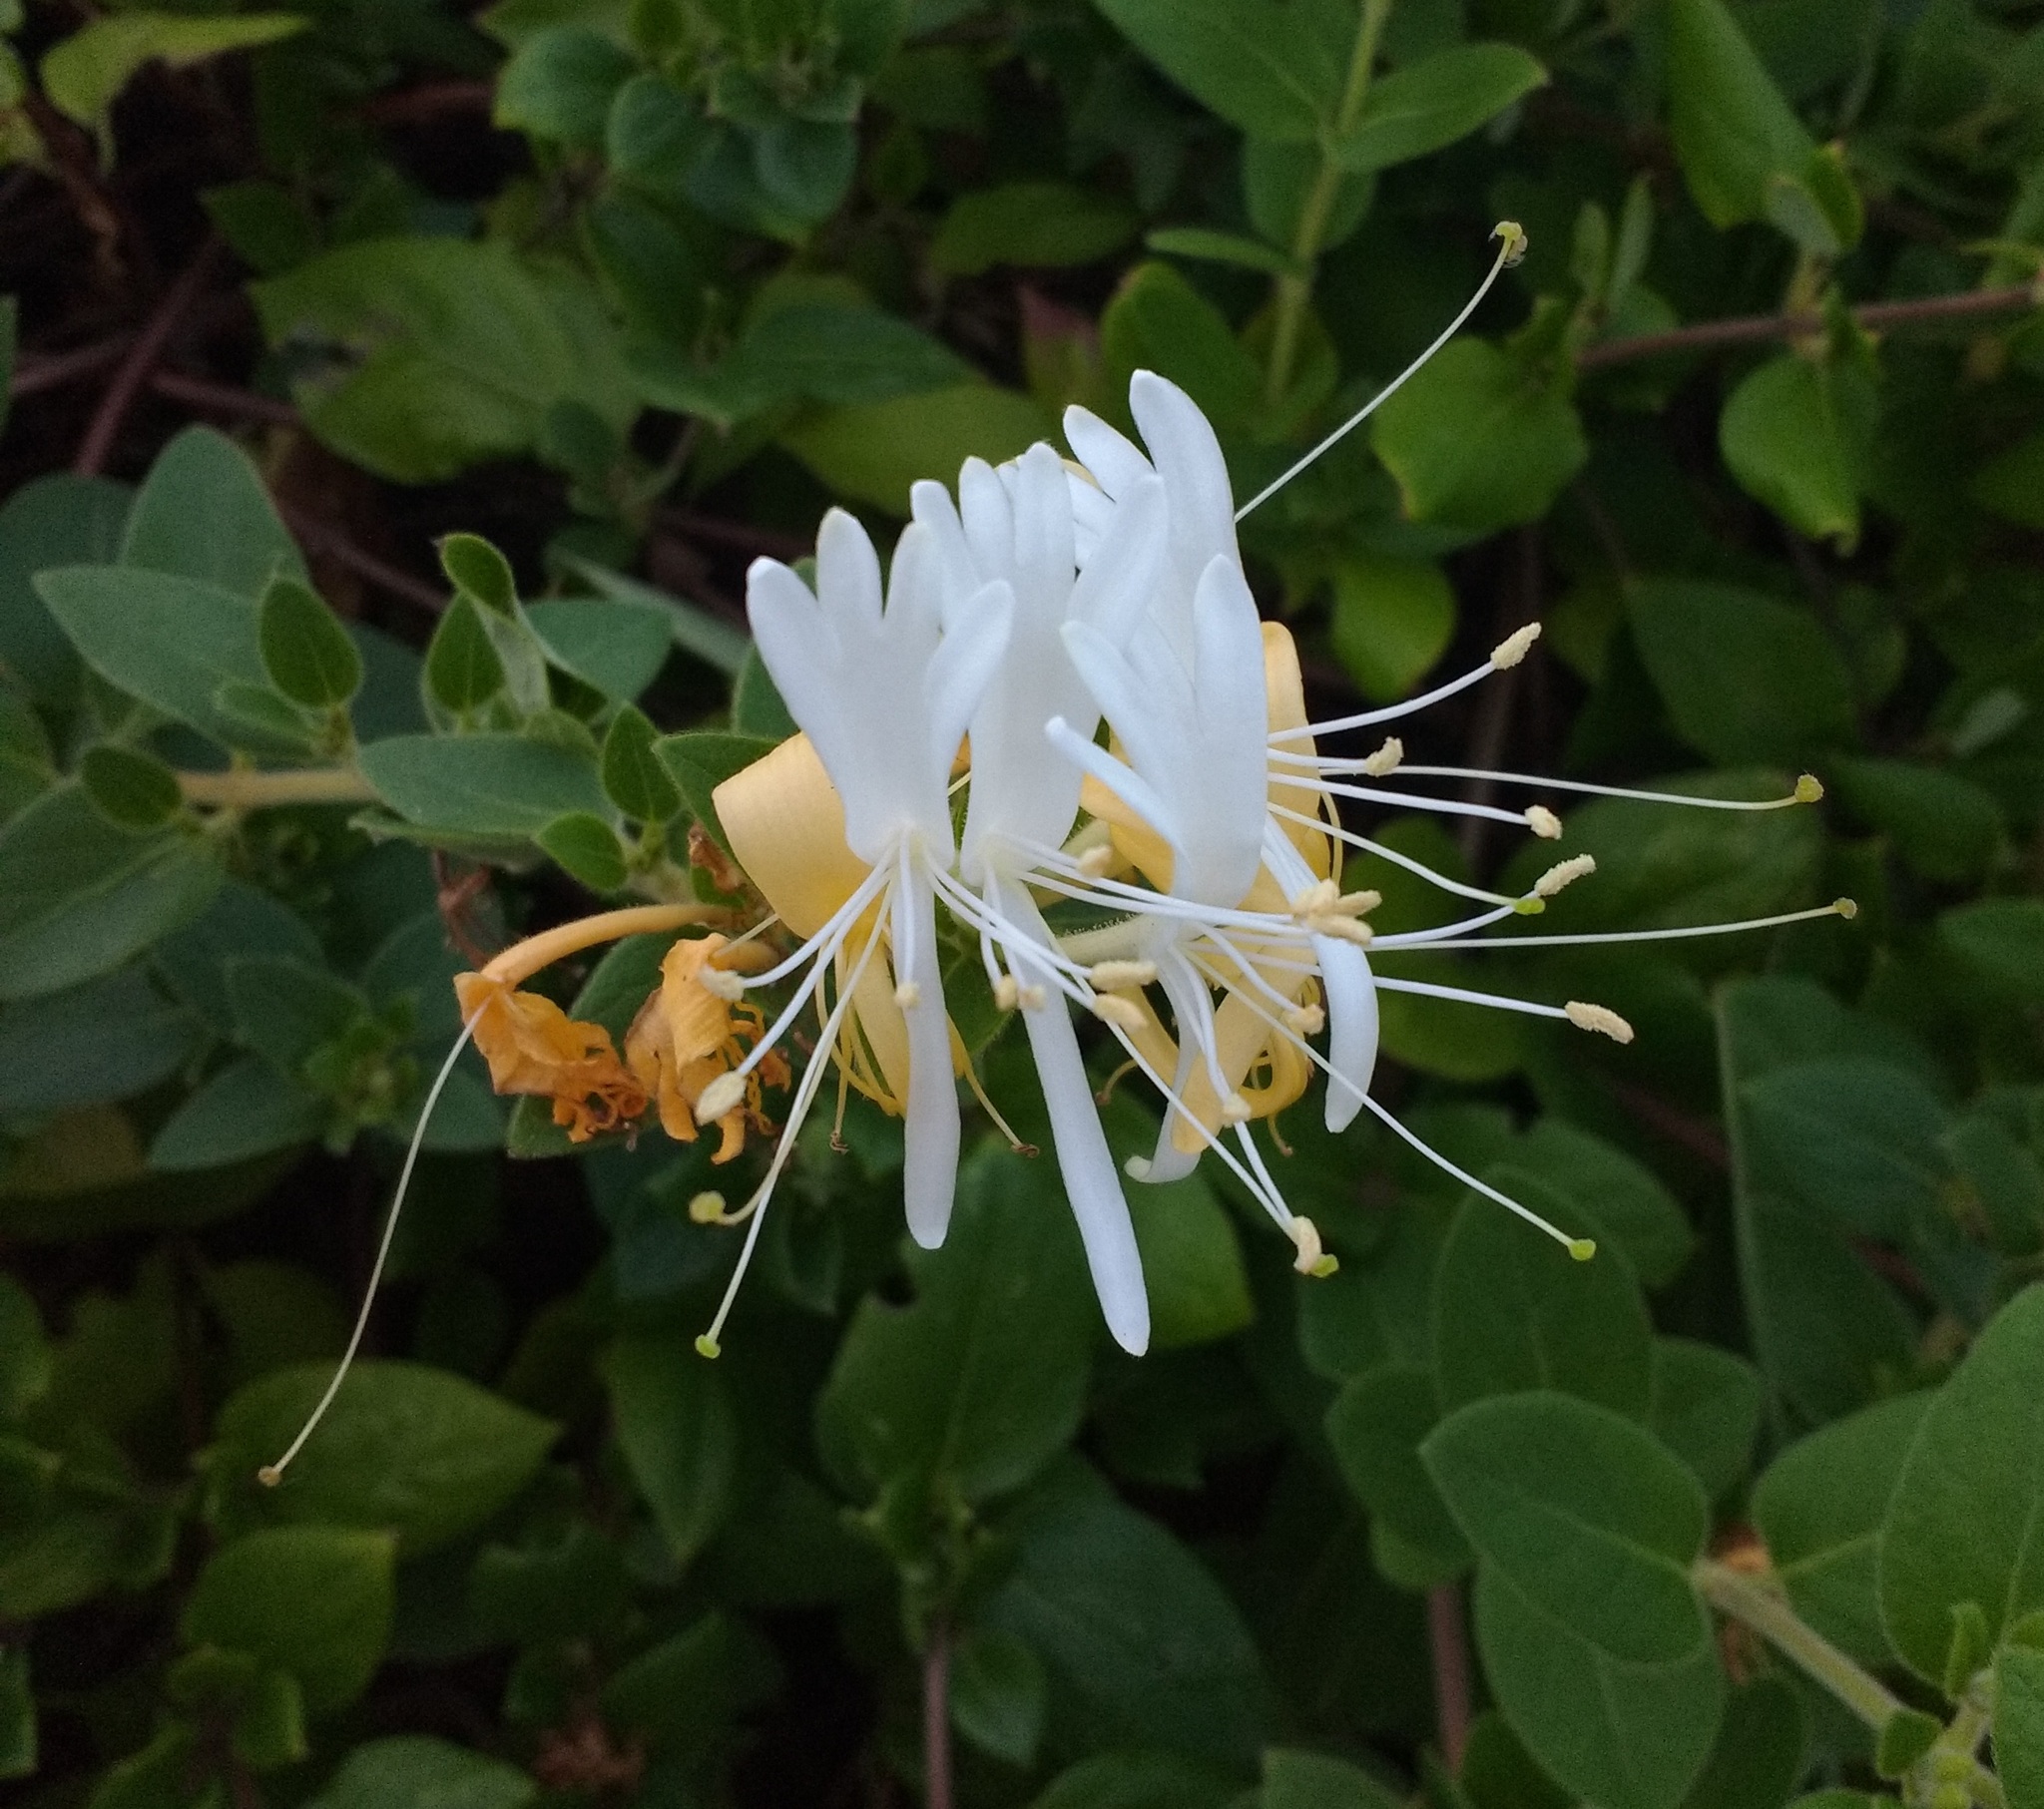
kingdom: Plantae
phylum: Tracheophyta
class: Magnoliopsida
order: Dipsacales
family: Caprifoliaceae
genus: Lonicera
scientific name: Lonicera japonica
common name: Japanese honeysuckle
